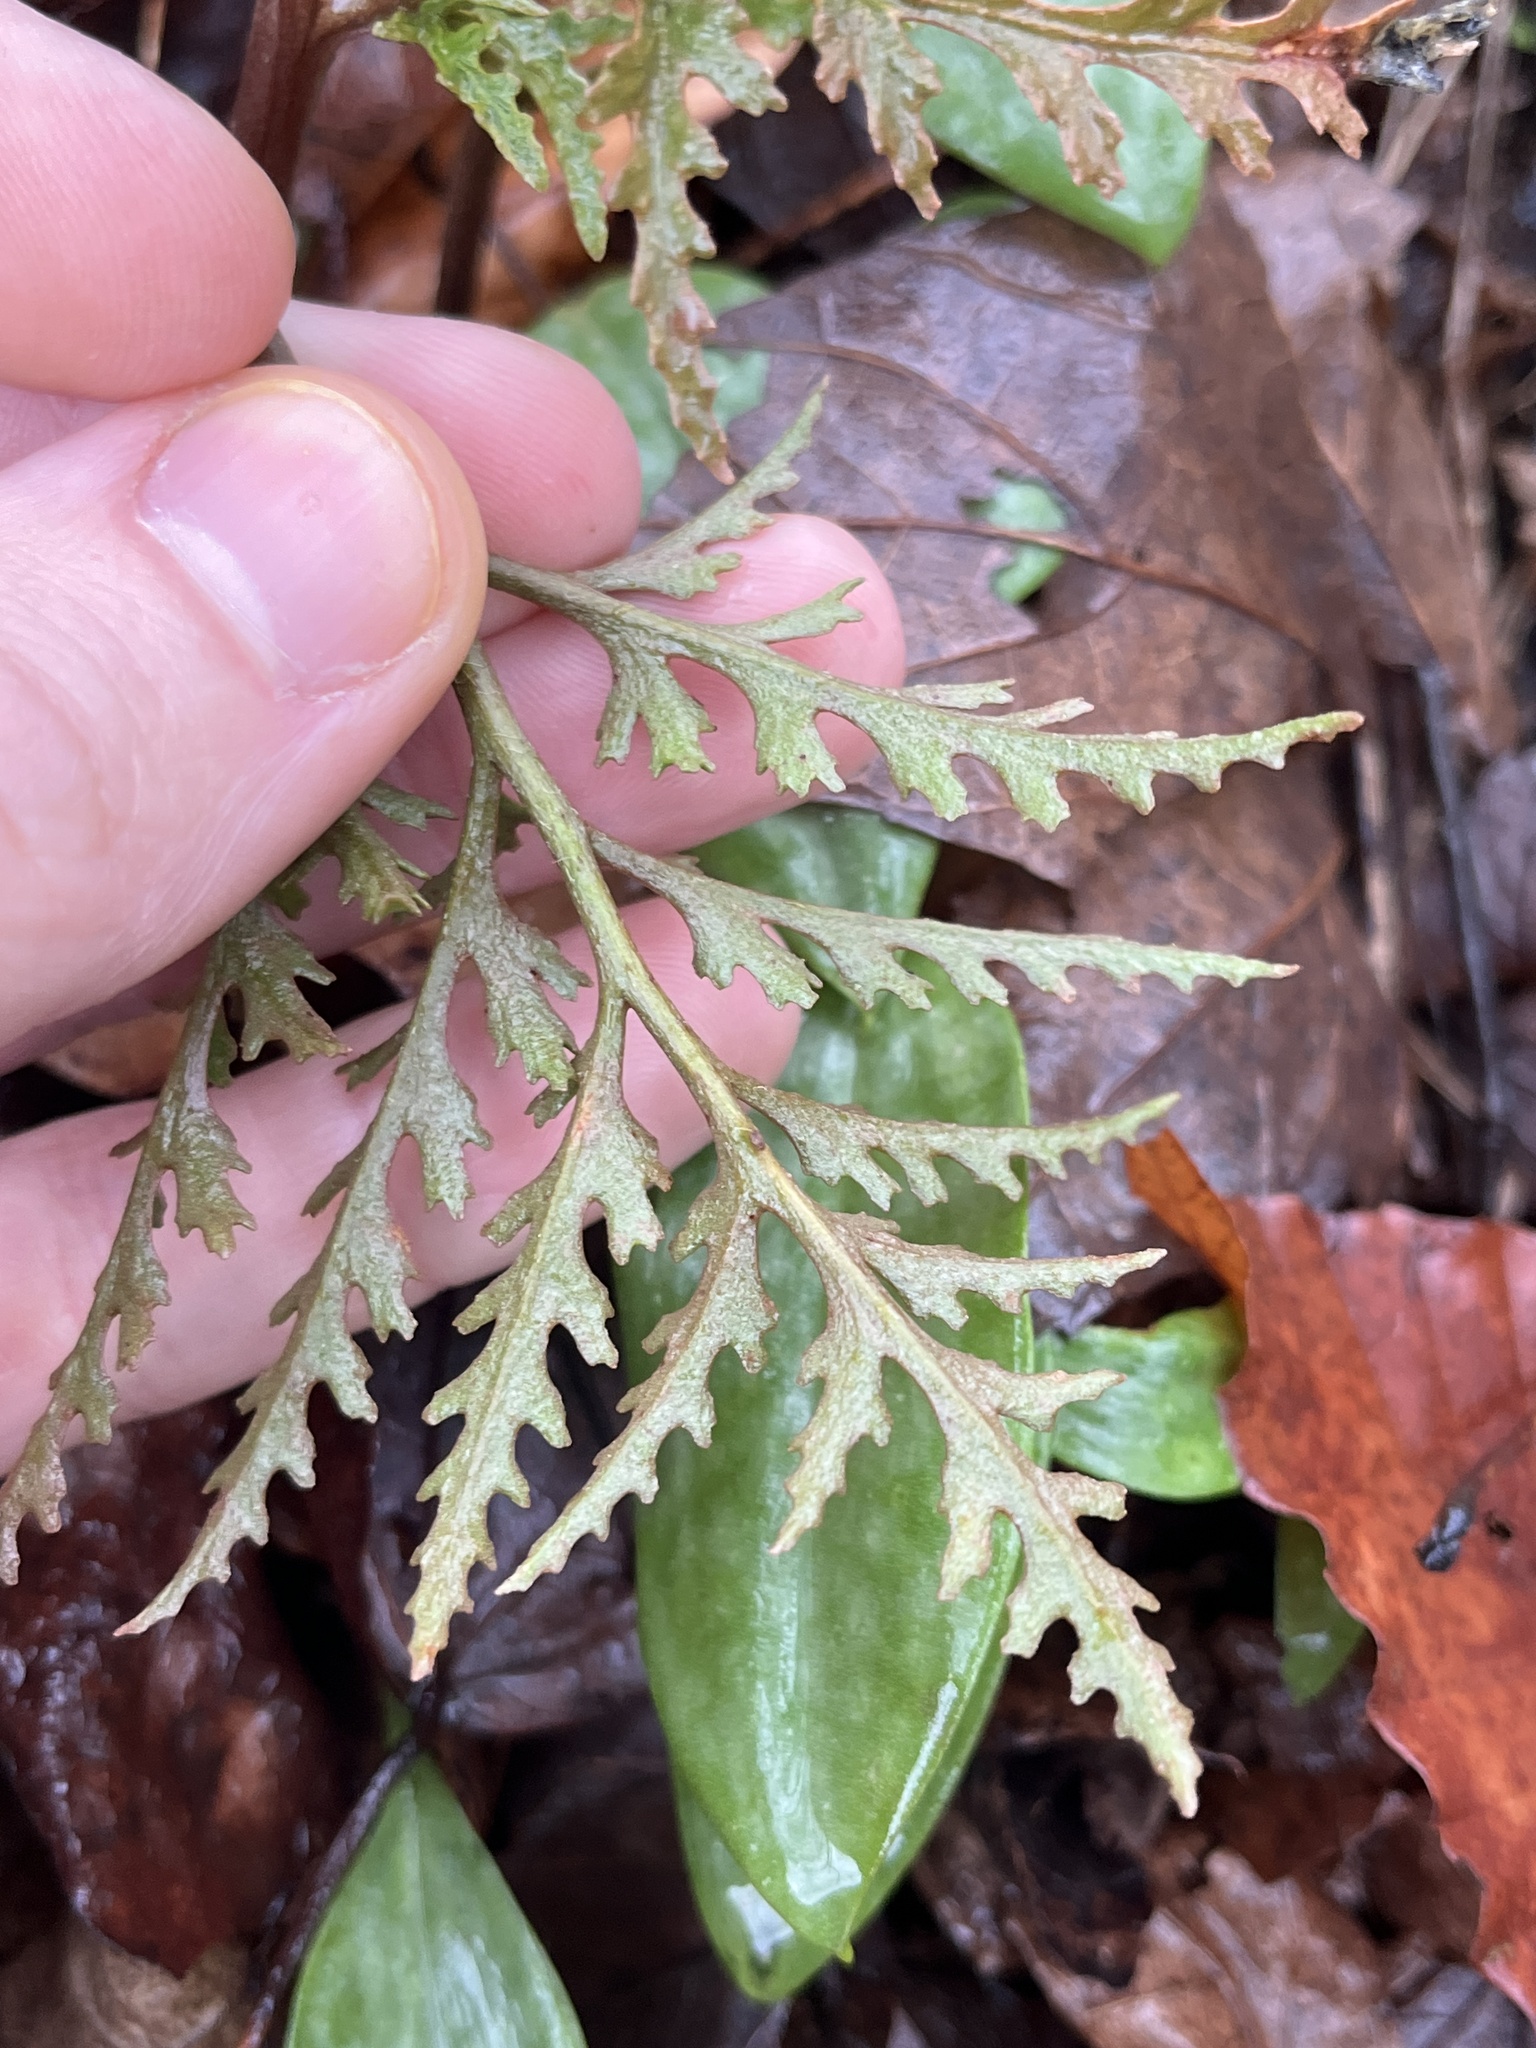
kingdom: Plantae
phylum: Tracheophyta
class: Polypodiopsida
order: Ophioglossales
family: Ophioglossaceae
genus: Sceptridium
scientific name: Sceptridium dissectum
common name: Cut-leaved grapefern
